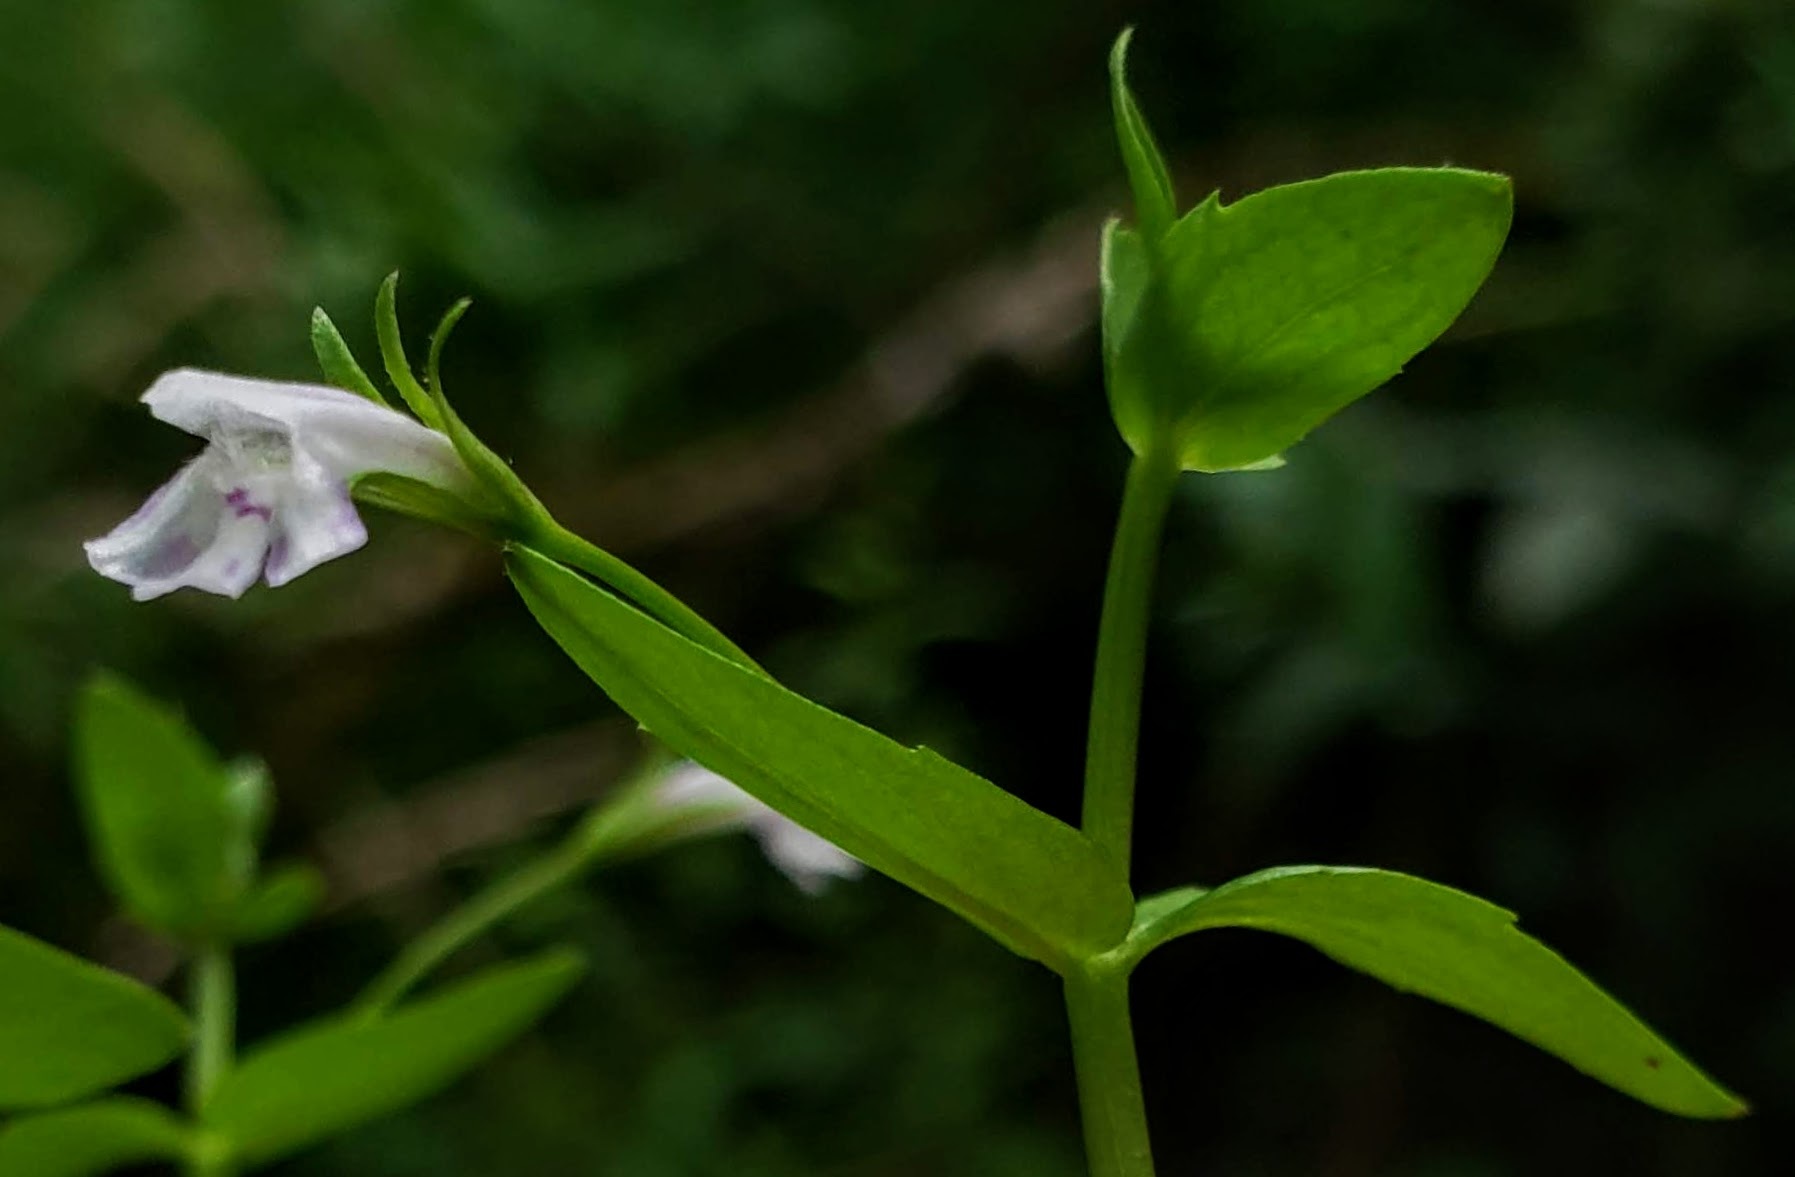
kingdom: Plantae
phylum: Tracheophyta
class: Magnoliopsida
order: Lamiales
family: Linderniaceae
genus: Lindernia
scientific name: Lindernia dubia
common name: Annual false pimpernel
